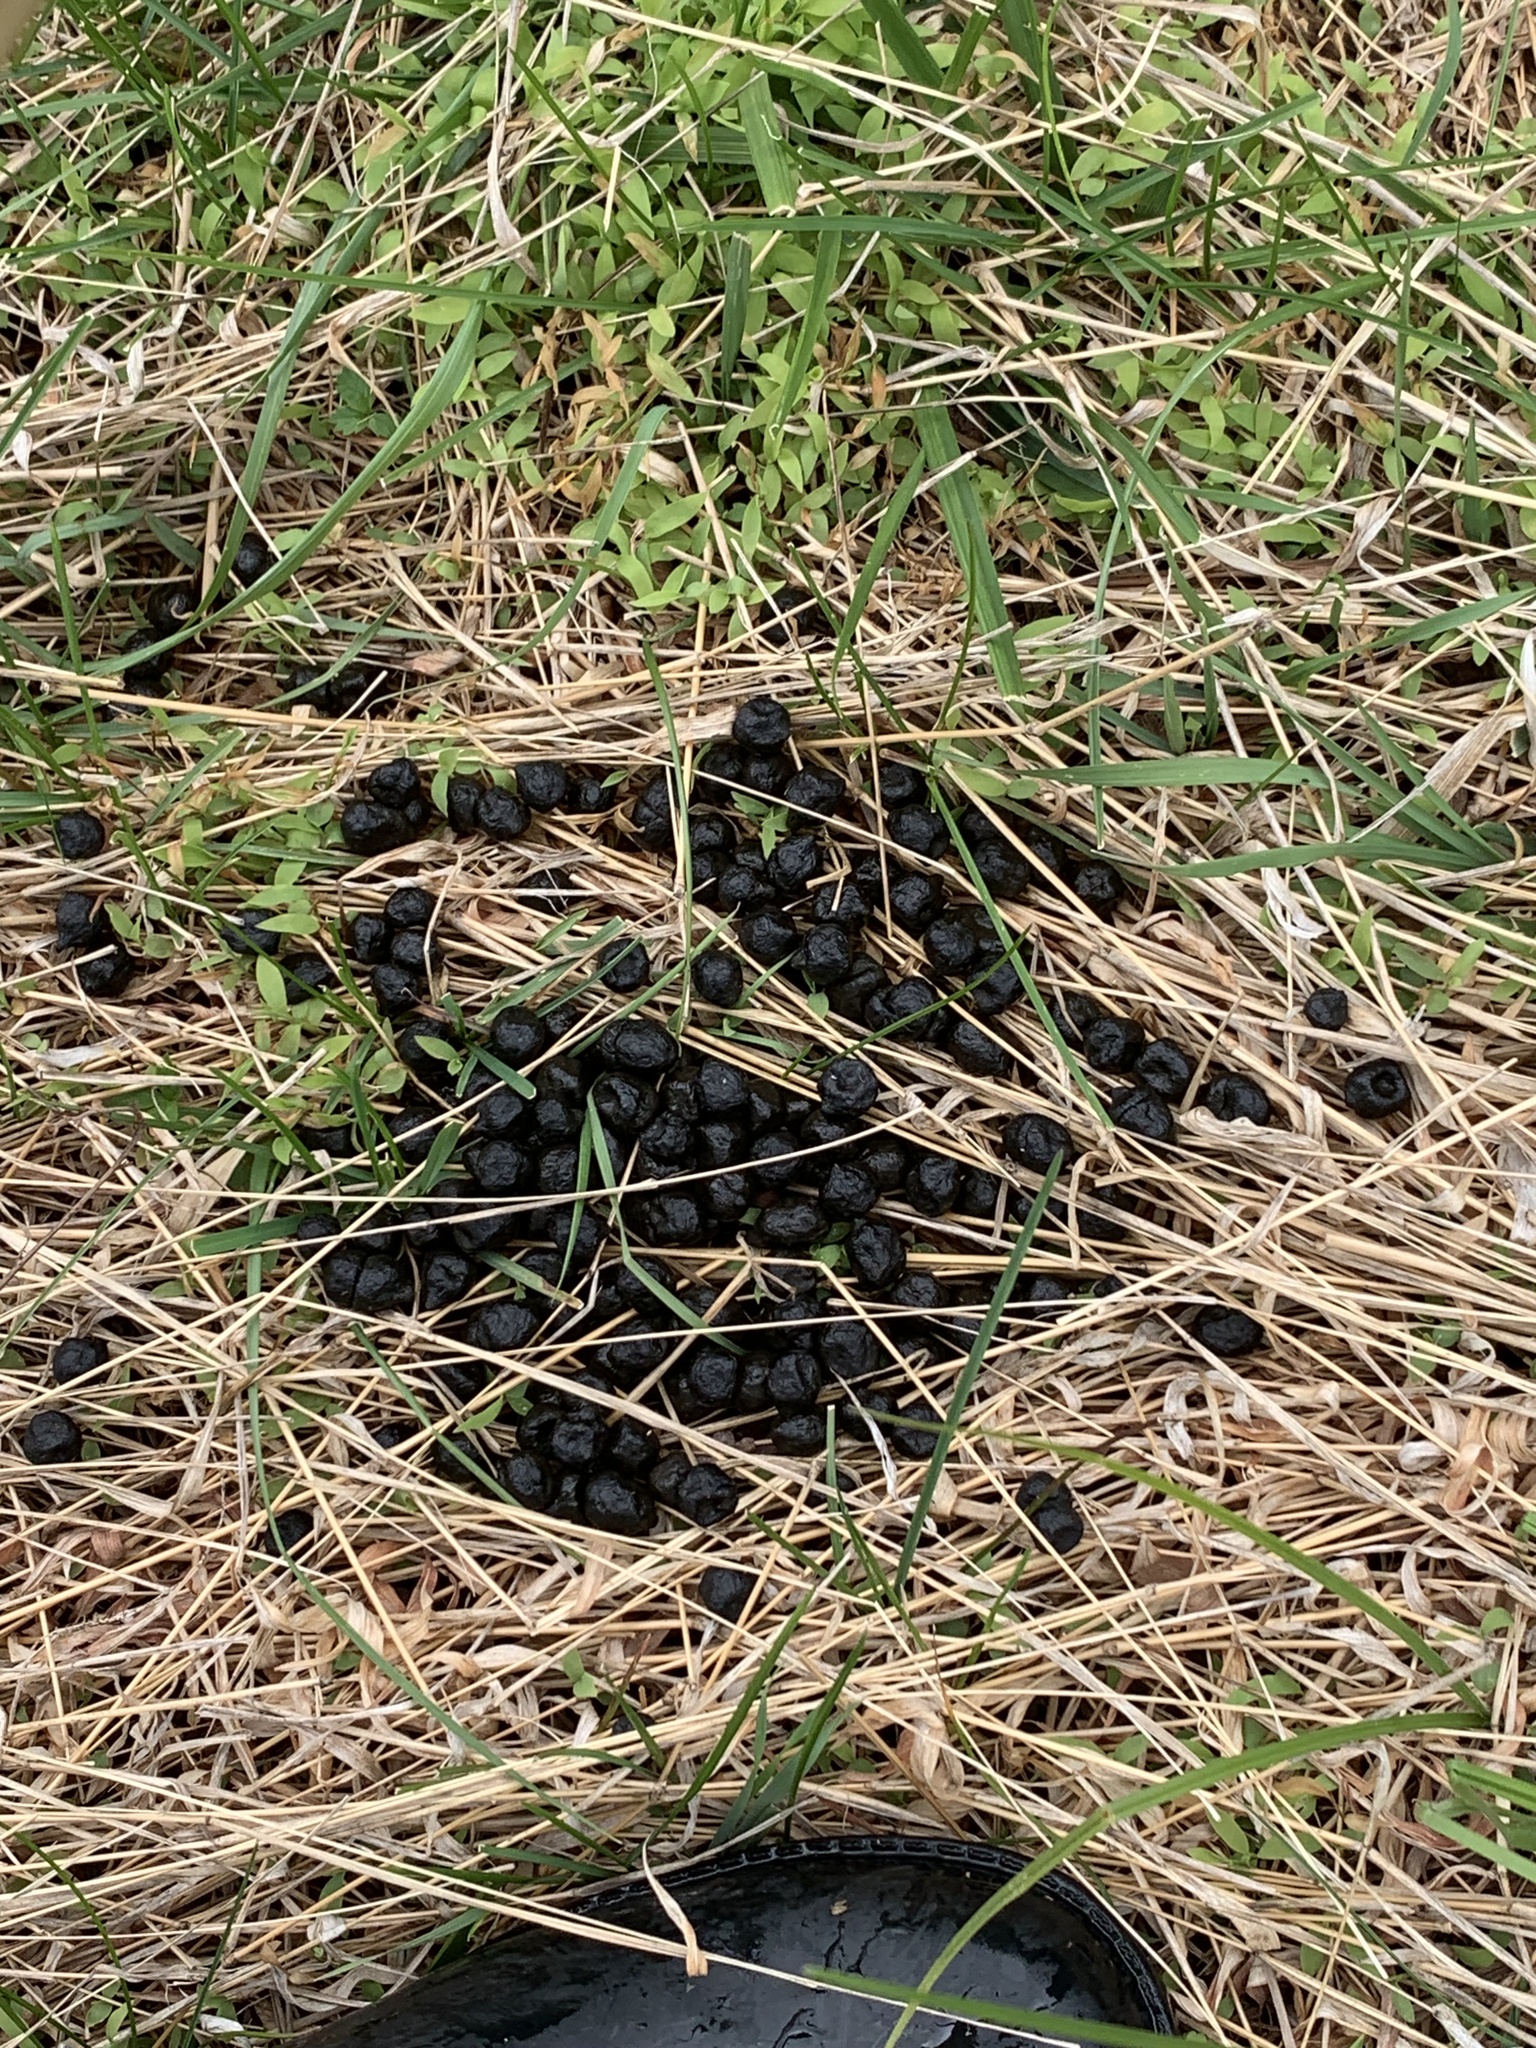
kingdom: Animalia
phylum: Chordata
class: Mammalia
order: Artiodactyla
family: Cervidae
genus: Odocoileus
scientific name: Odocoileus virginianus
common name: White-tailed deer
